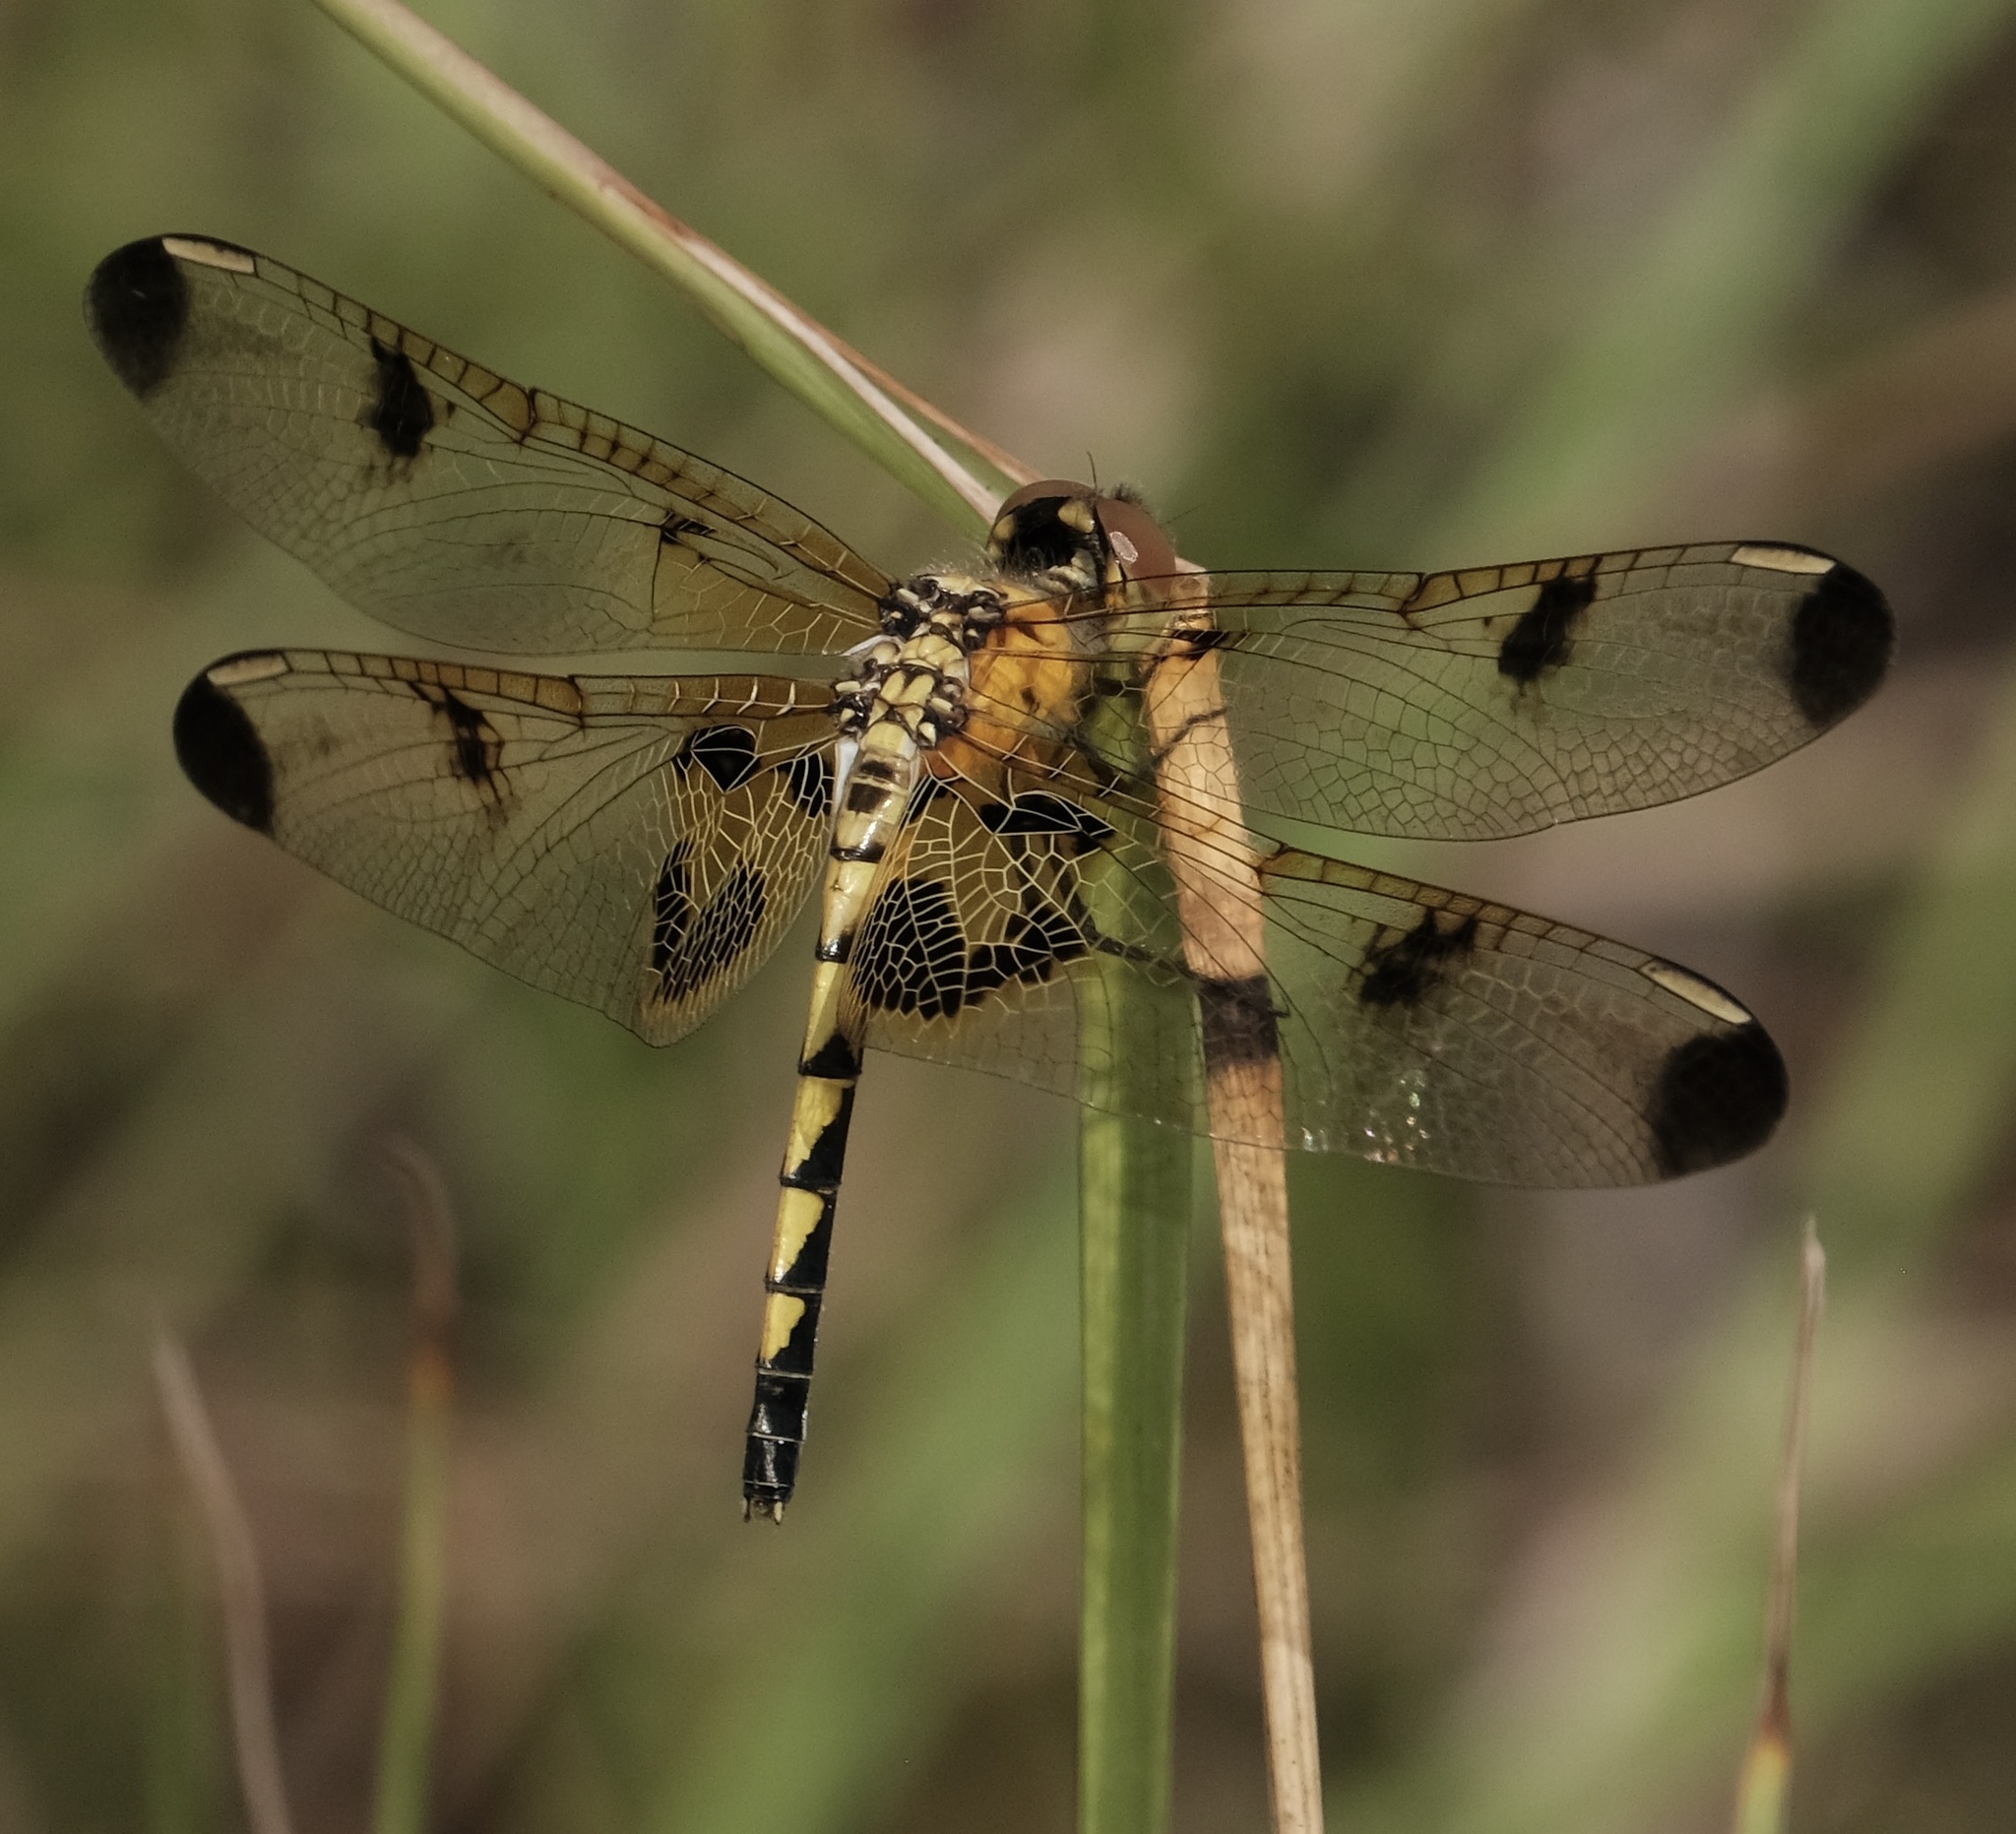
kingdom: Animalia
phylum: Arthropoda
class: Insecta
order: Odonata
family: Libellulidae
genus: Celithemis
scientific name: Celithemis elisa
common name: Calico pennant
